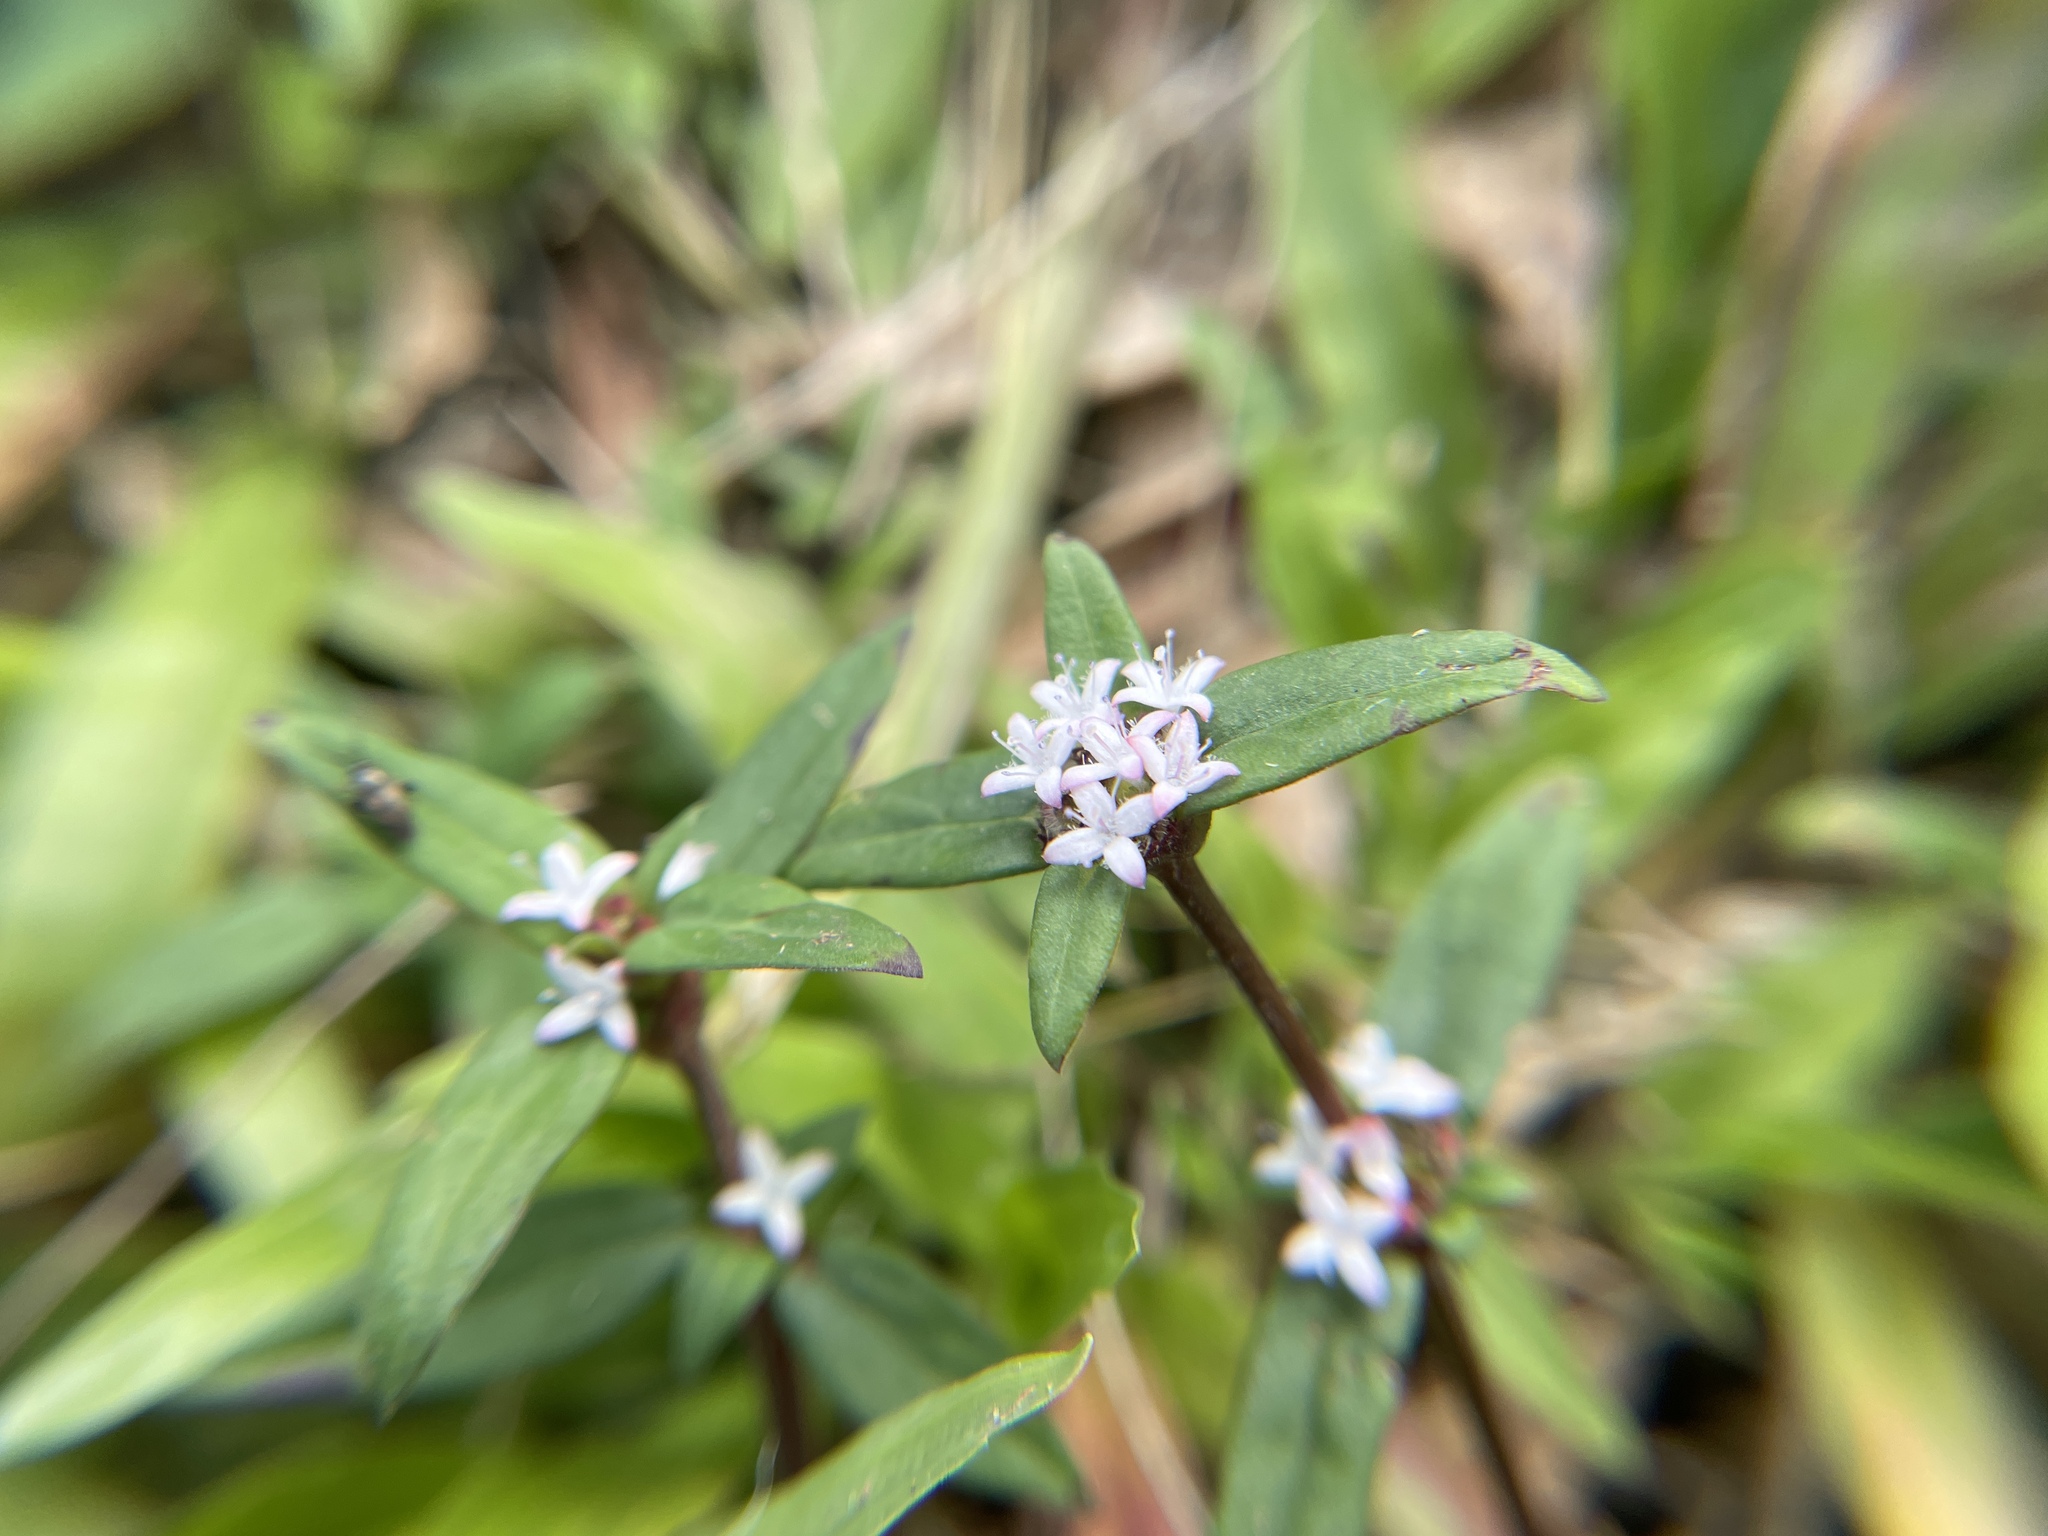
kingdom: Plantae
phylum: Tracheophyta
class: Magnoliopsida
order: Gentianales
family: Rubiaceae
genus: Spermacoce
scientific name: Spermacoce remota
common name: Woodland false buttonweed
